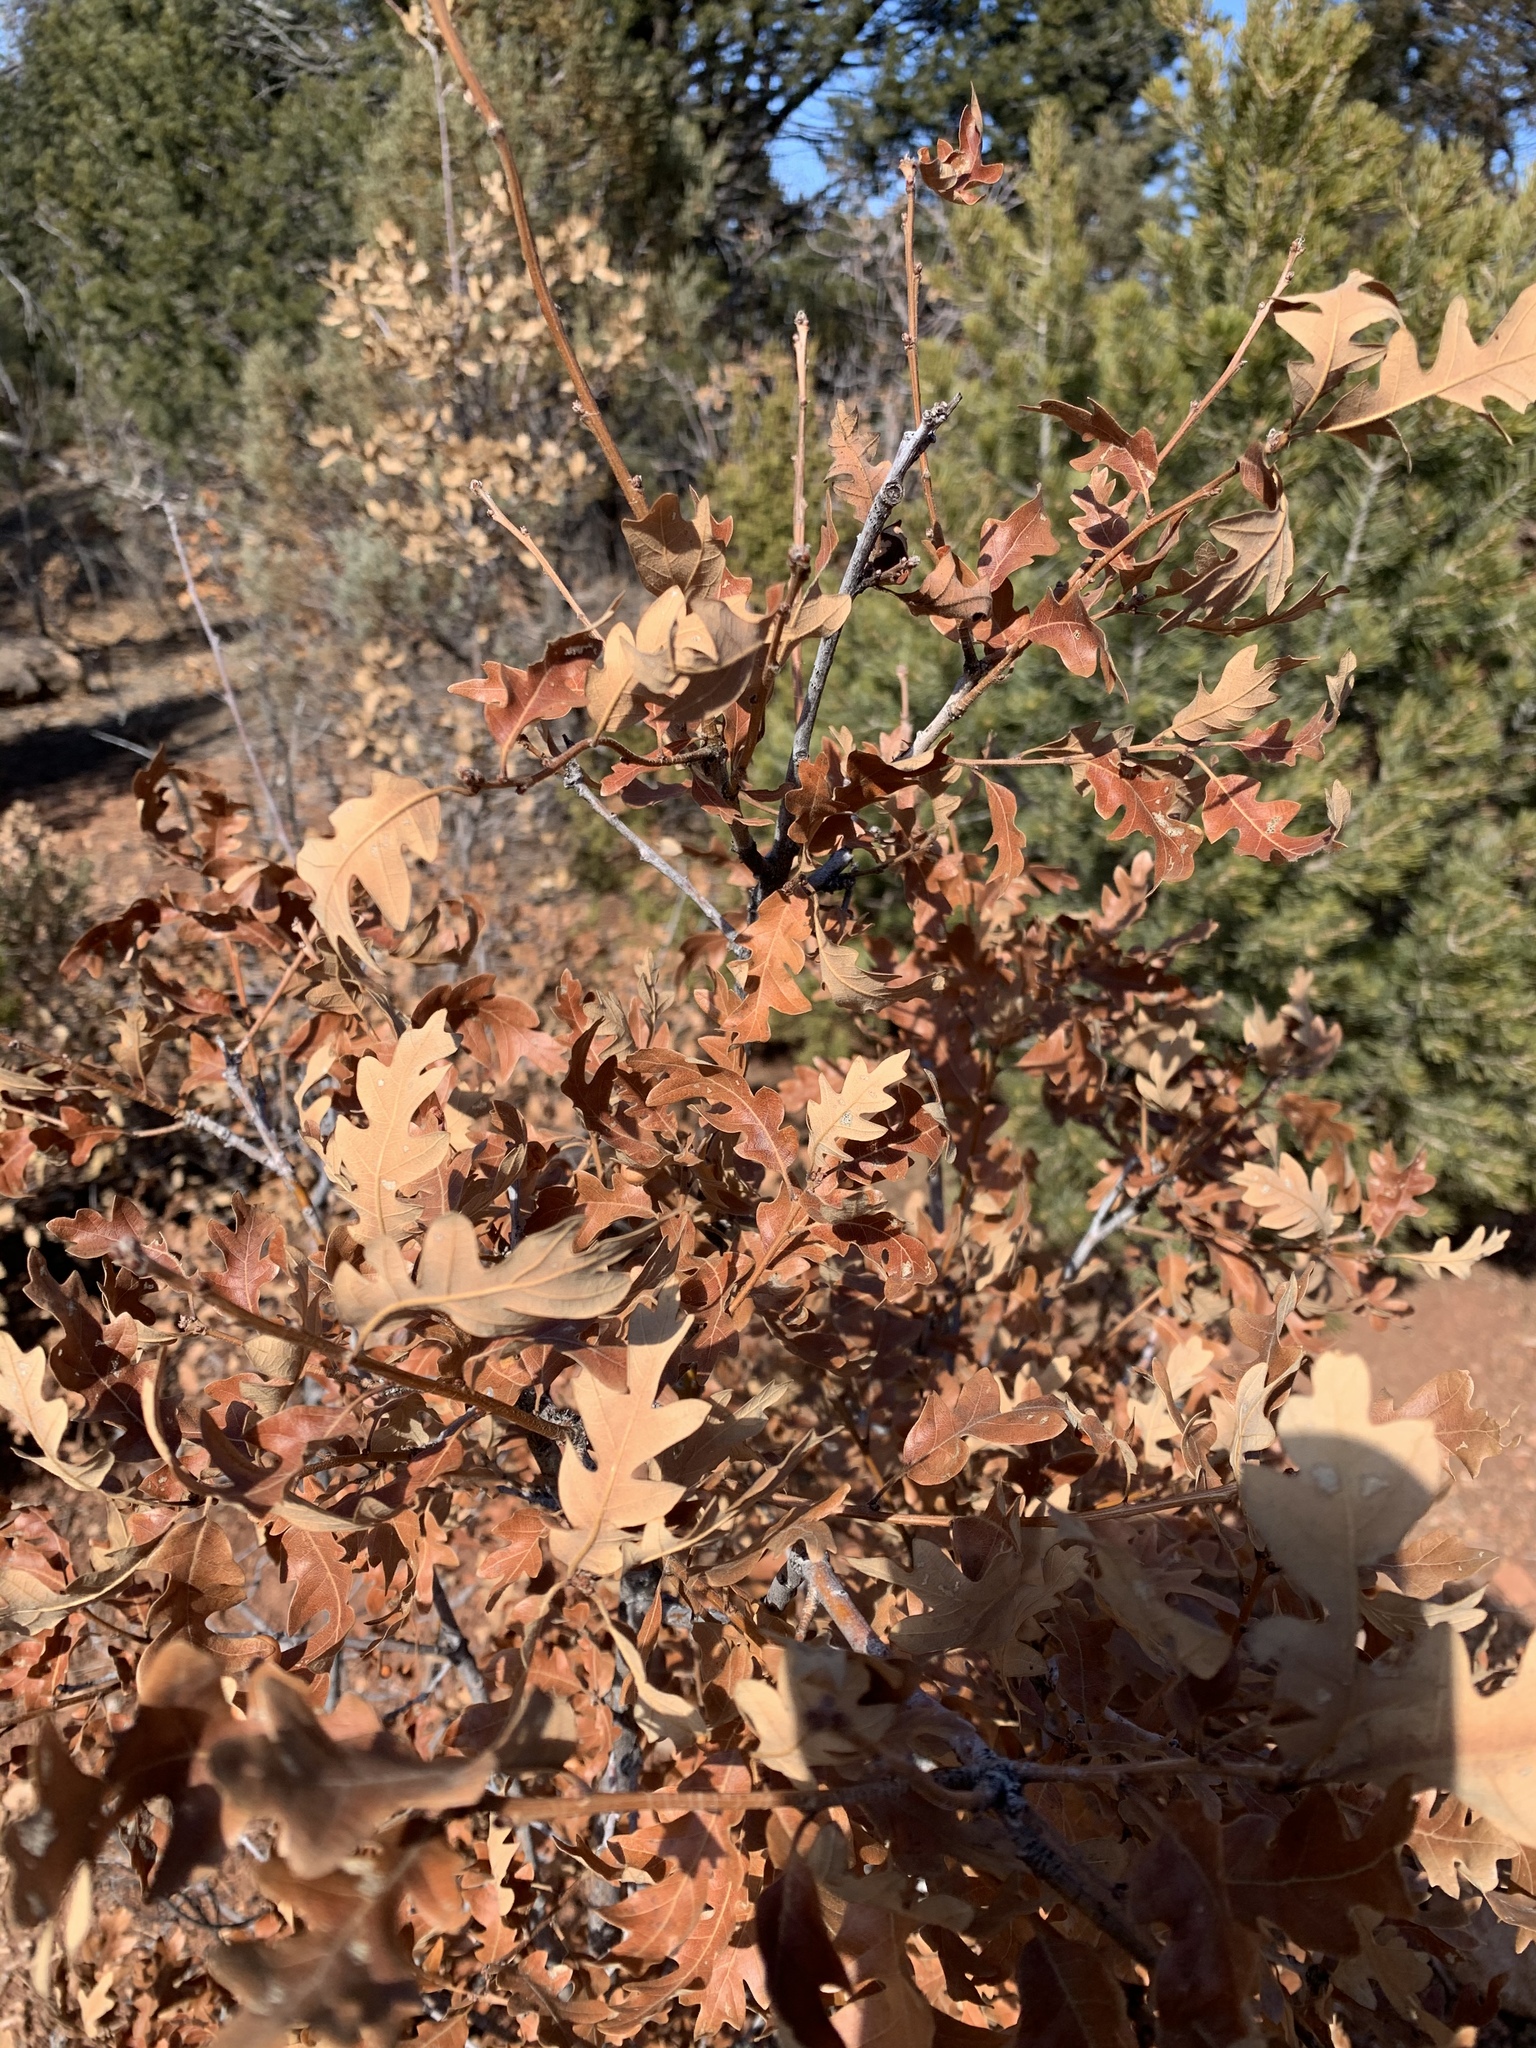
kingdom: Plantae
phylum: Tracheophyta
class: Magnoliopsida
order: Fagales
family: Fagaceae
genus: Quercus
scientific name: Quercus gambelii
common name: Gambel oak
